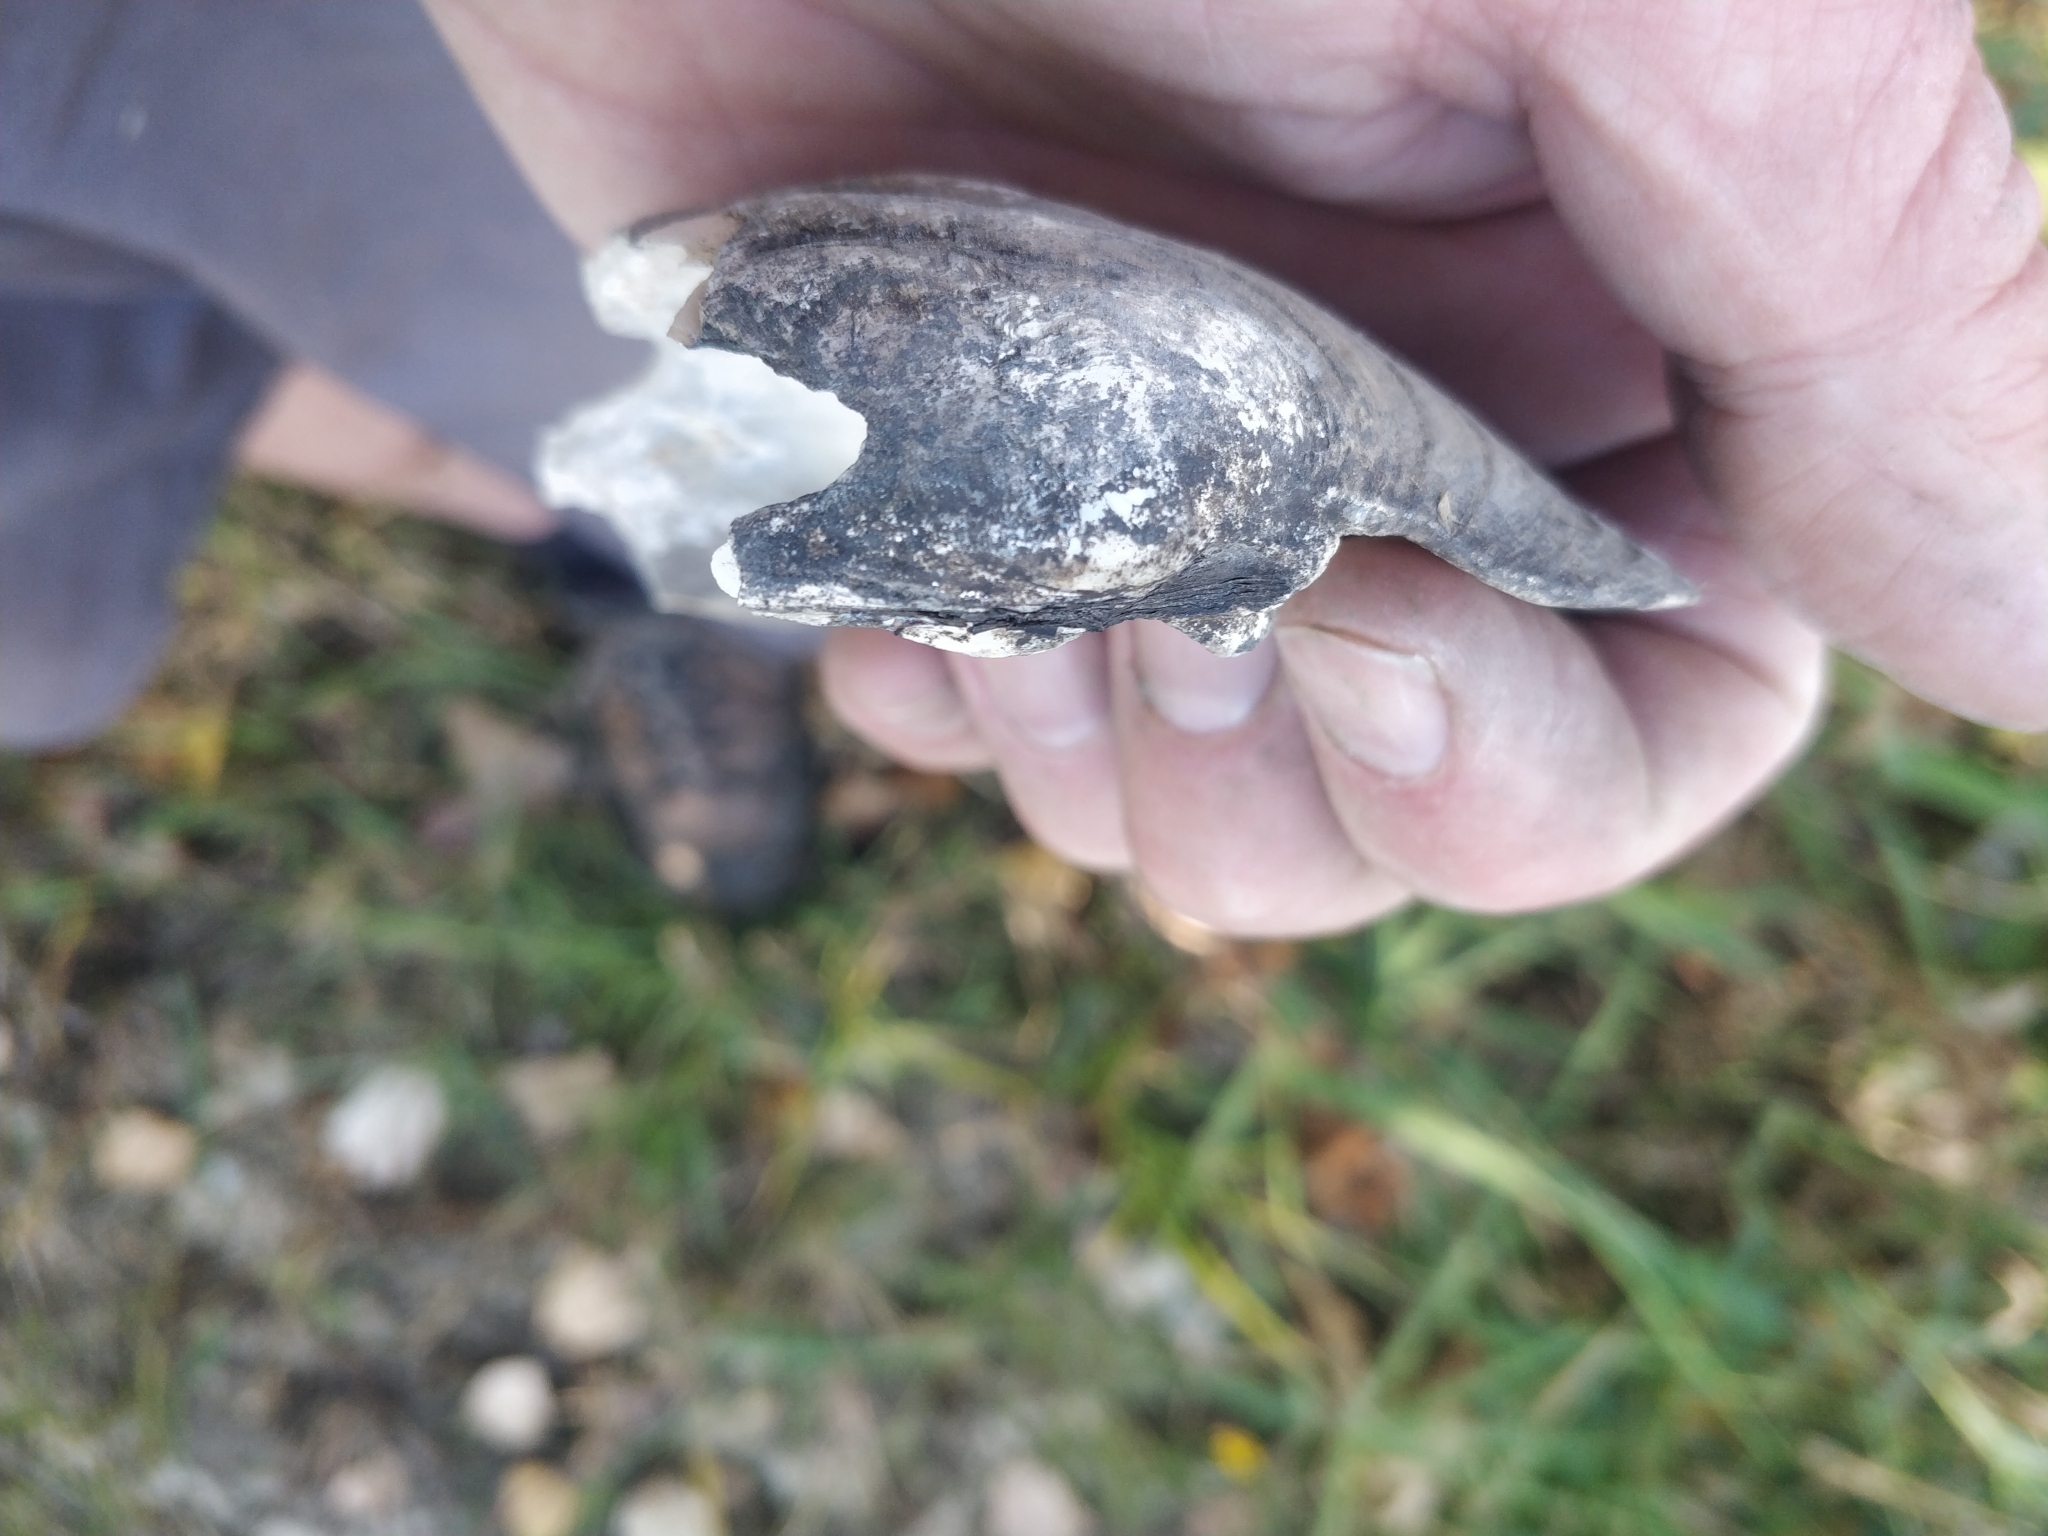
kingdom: Animalia
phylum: Mollusca
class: Bivalvia
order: Unionida
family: Unionidae
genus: Amblema
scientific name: Amblema plicata
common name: Threeridge
